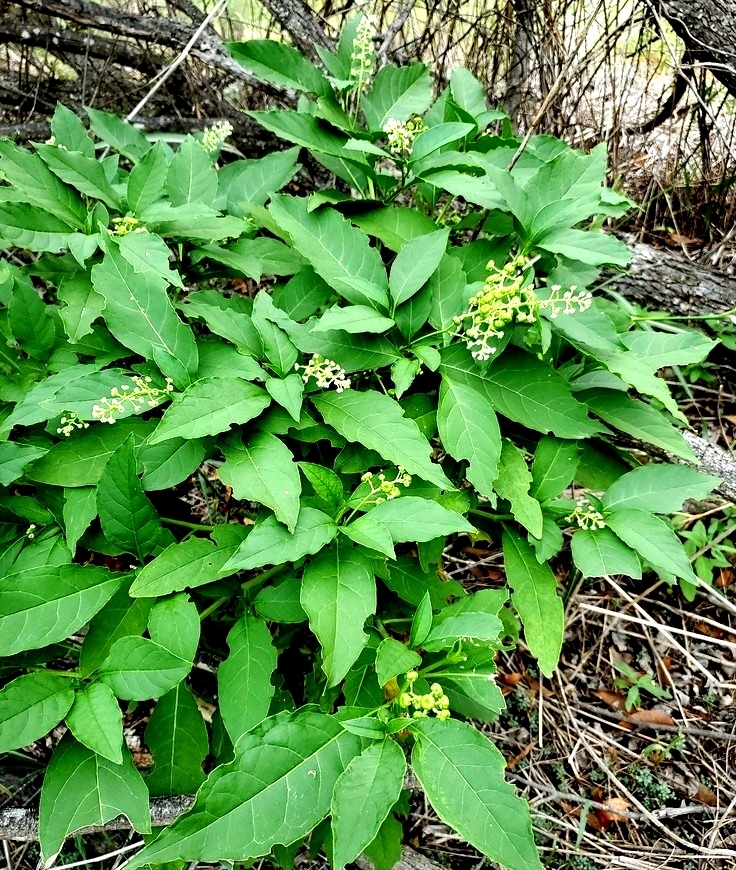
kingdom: Plantae
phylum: Tracheophyta
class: Magnoliopsida
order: Caryophyllales
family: Phytolaccaceae
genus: Phytolacca
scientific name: Phytolacca americana
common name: American pokeweed
